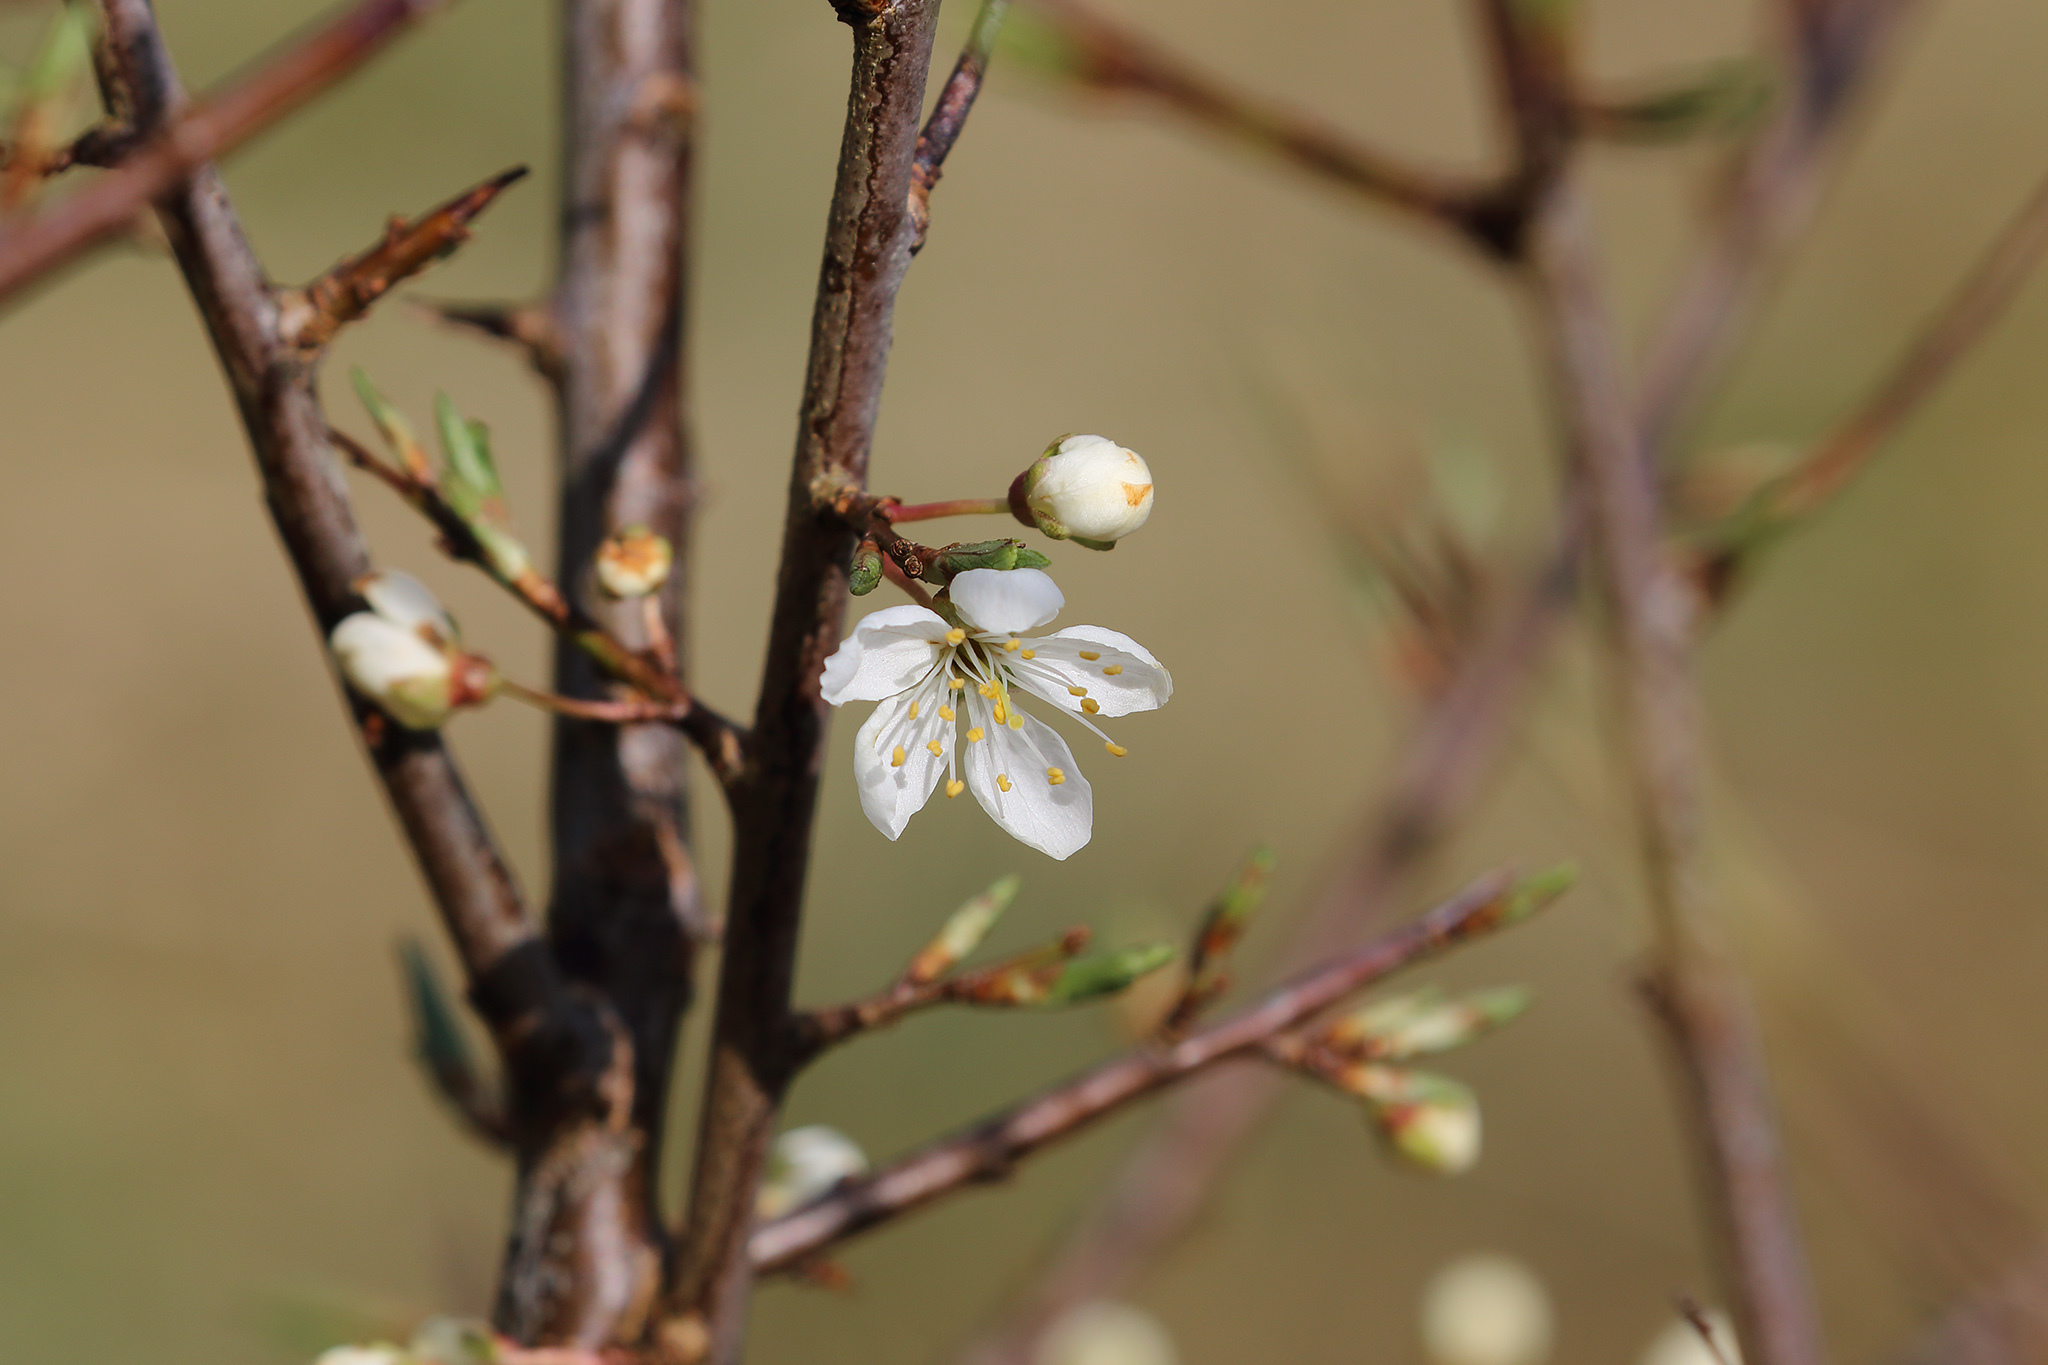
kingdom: Plantae
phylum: Tracheophyta
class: Magnoliopsida
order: Rosales
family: Rosaceae
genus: Prunus
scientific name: Prunus spinosa
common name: Blackthorn
